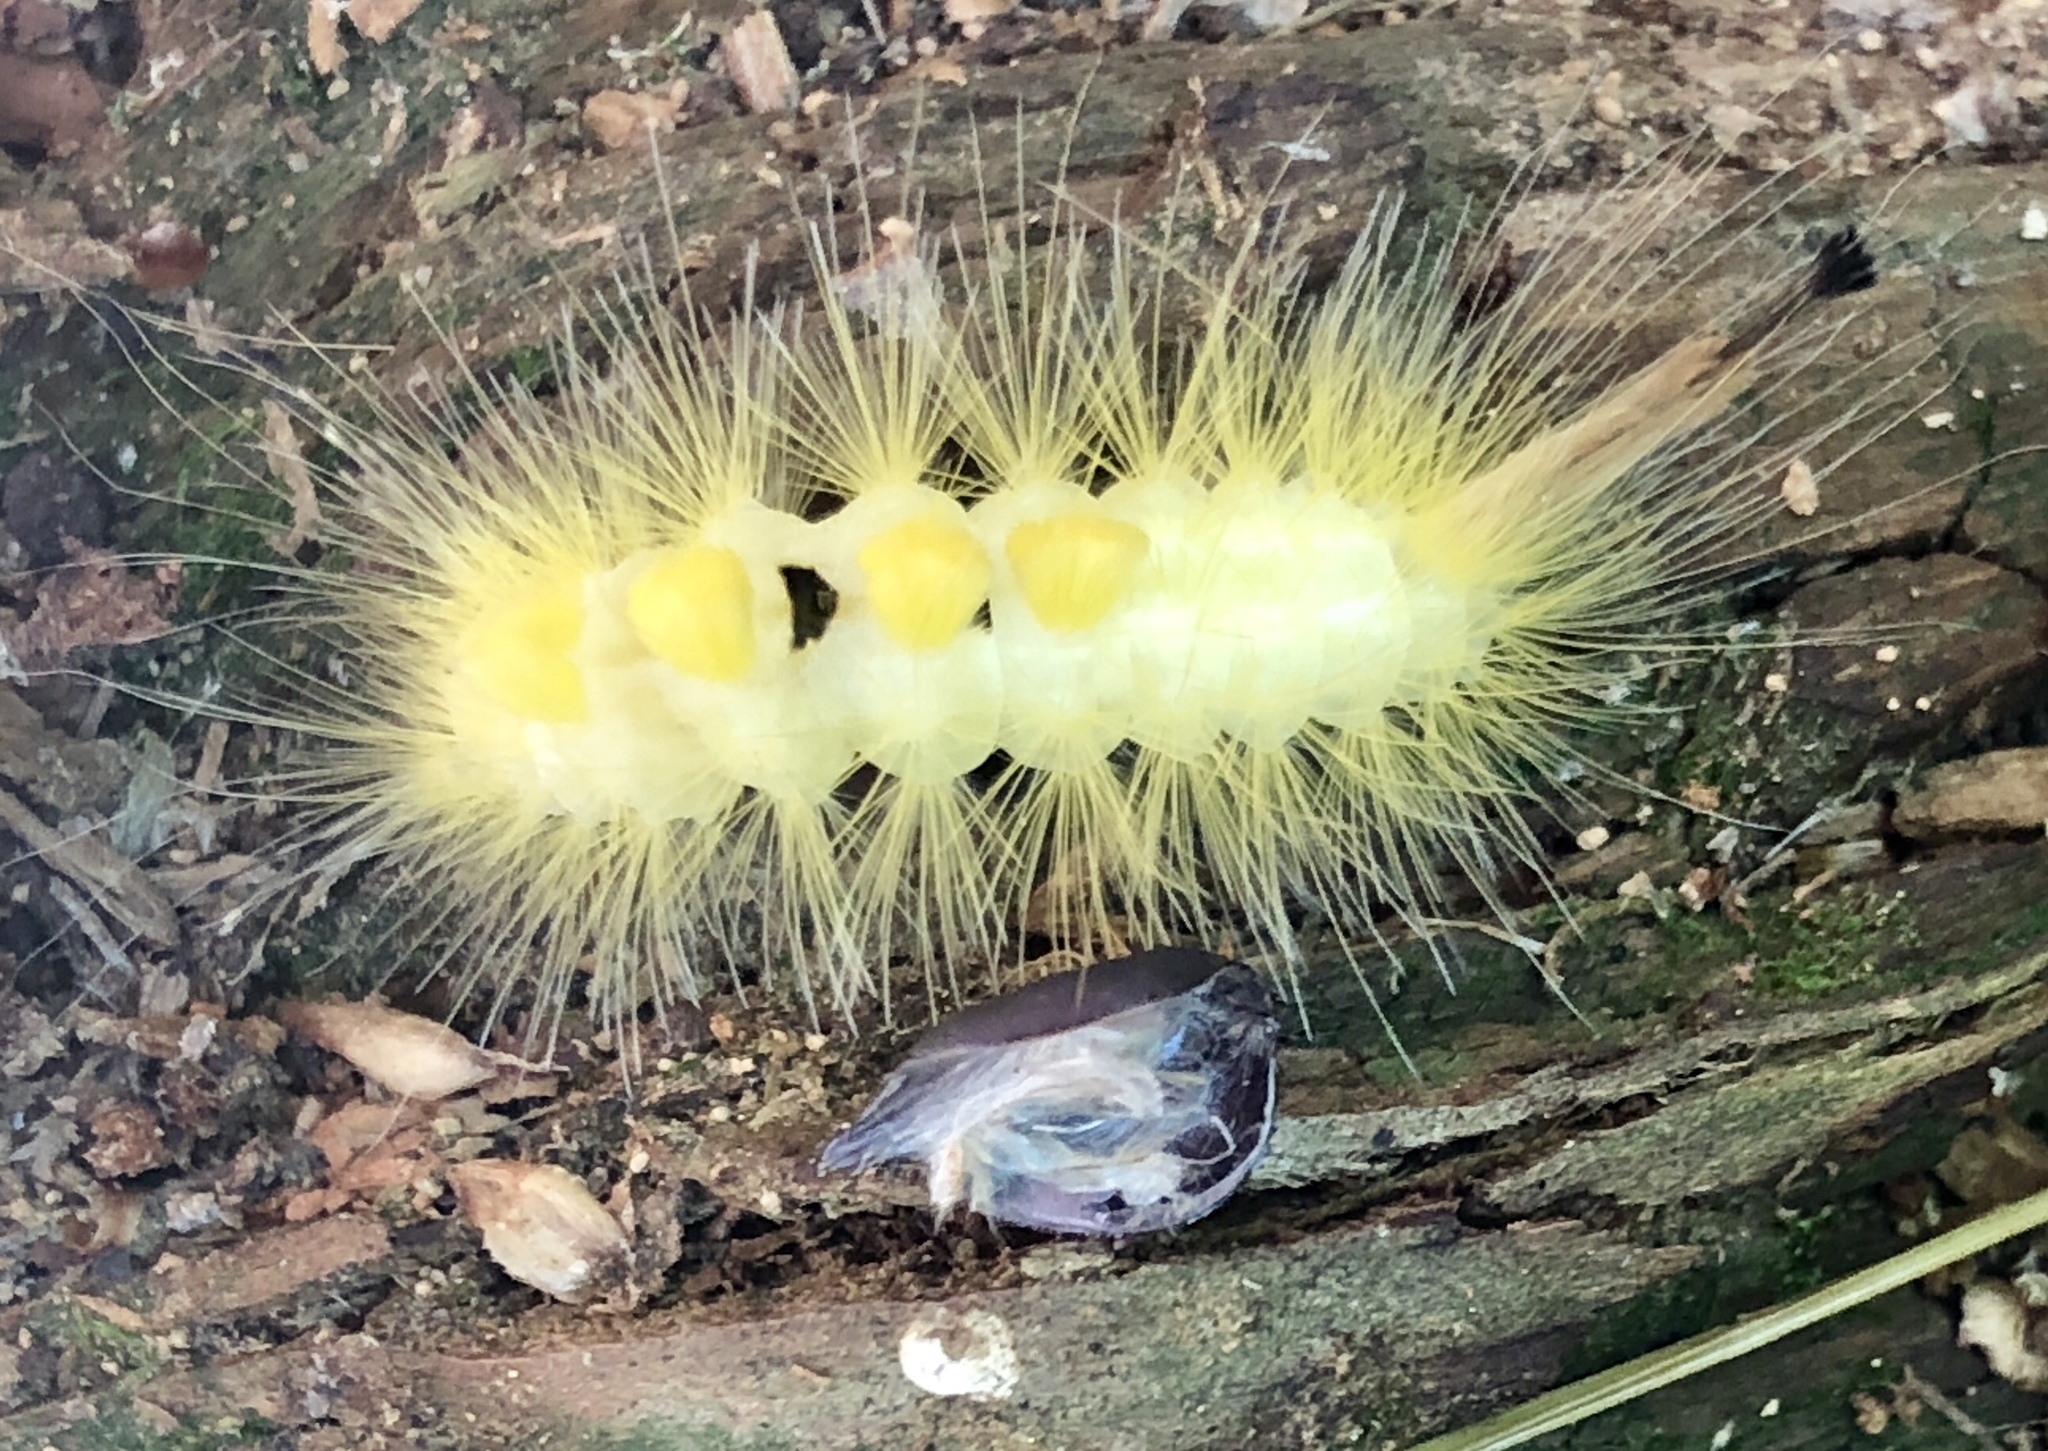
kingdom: Animalia
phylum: Arthropoda
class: Insecta
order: Lepidoptera
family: Erebidae
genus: Orgyia
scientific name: Orgyia definita
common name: Definite tussock moth
